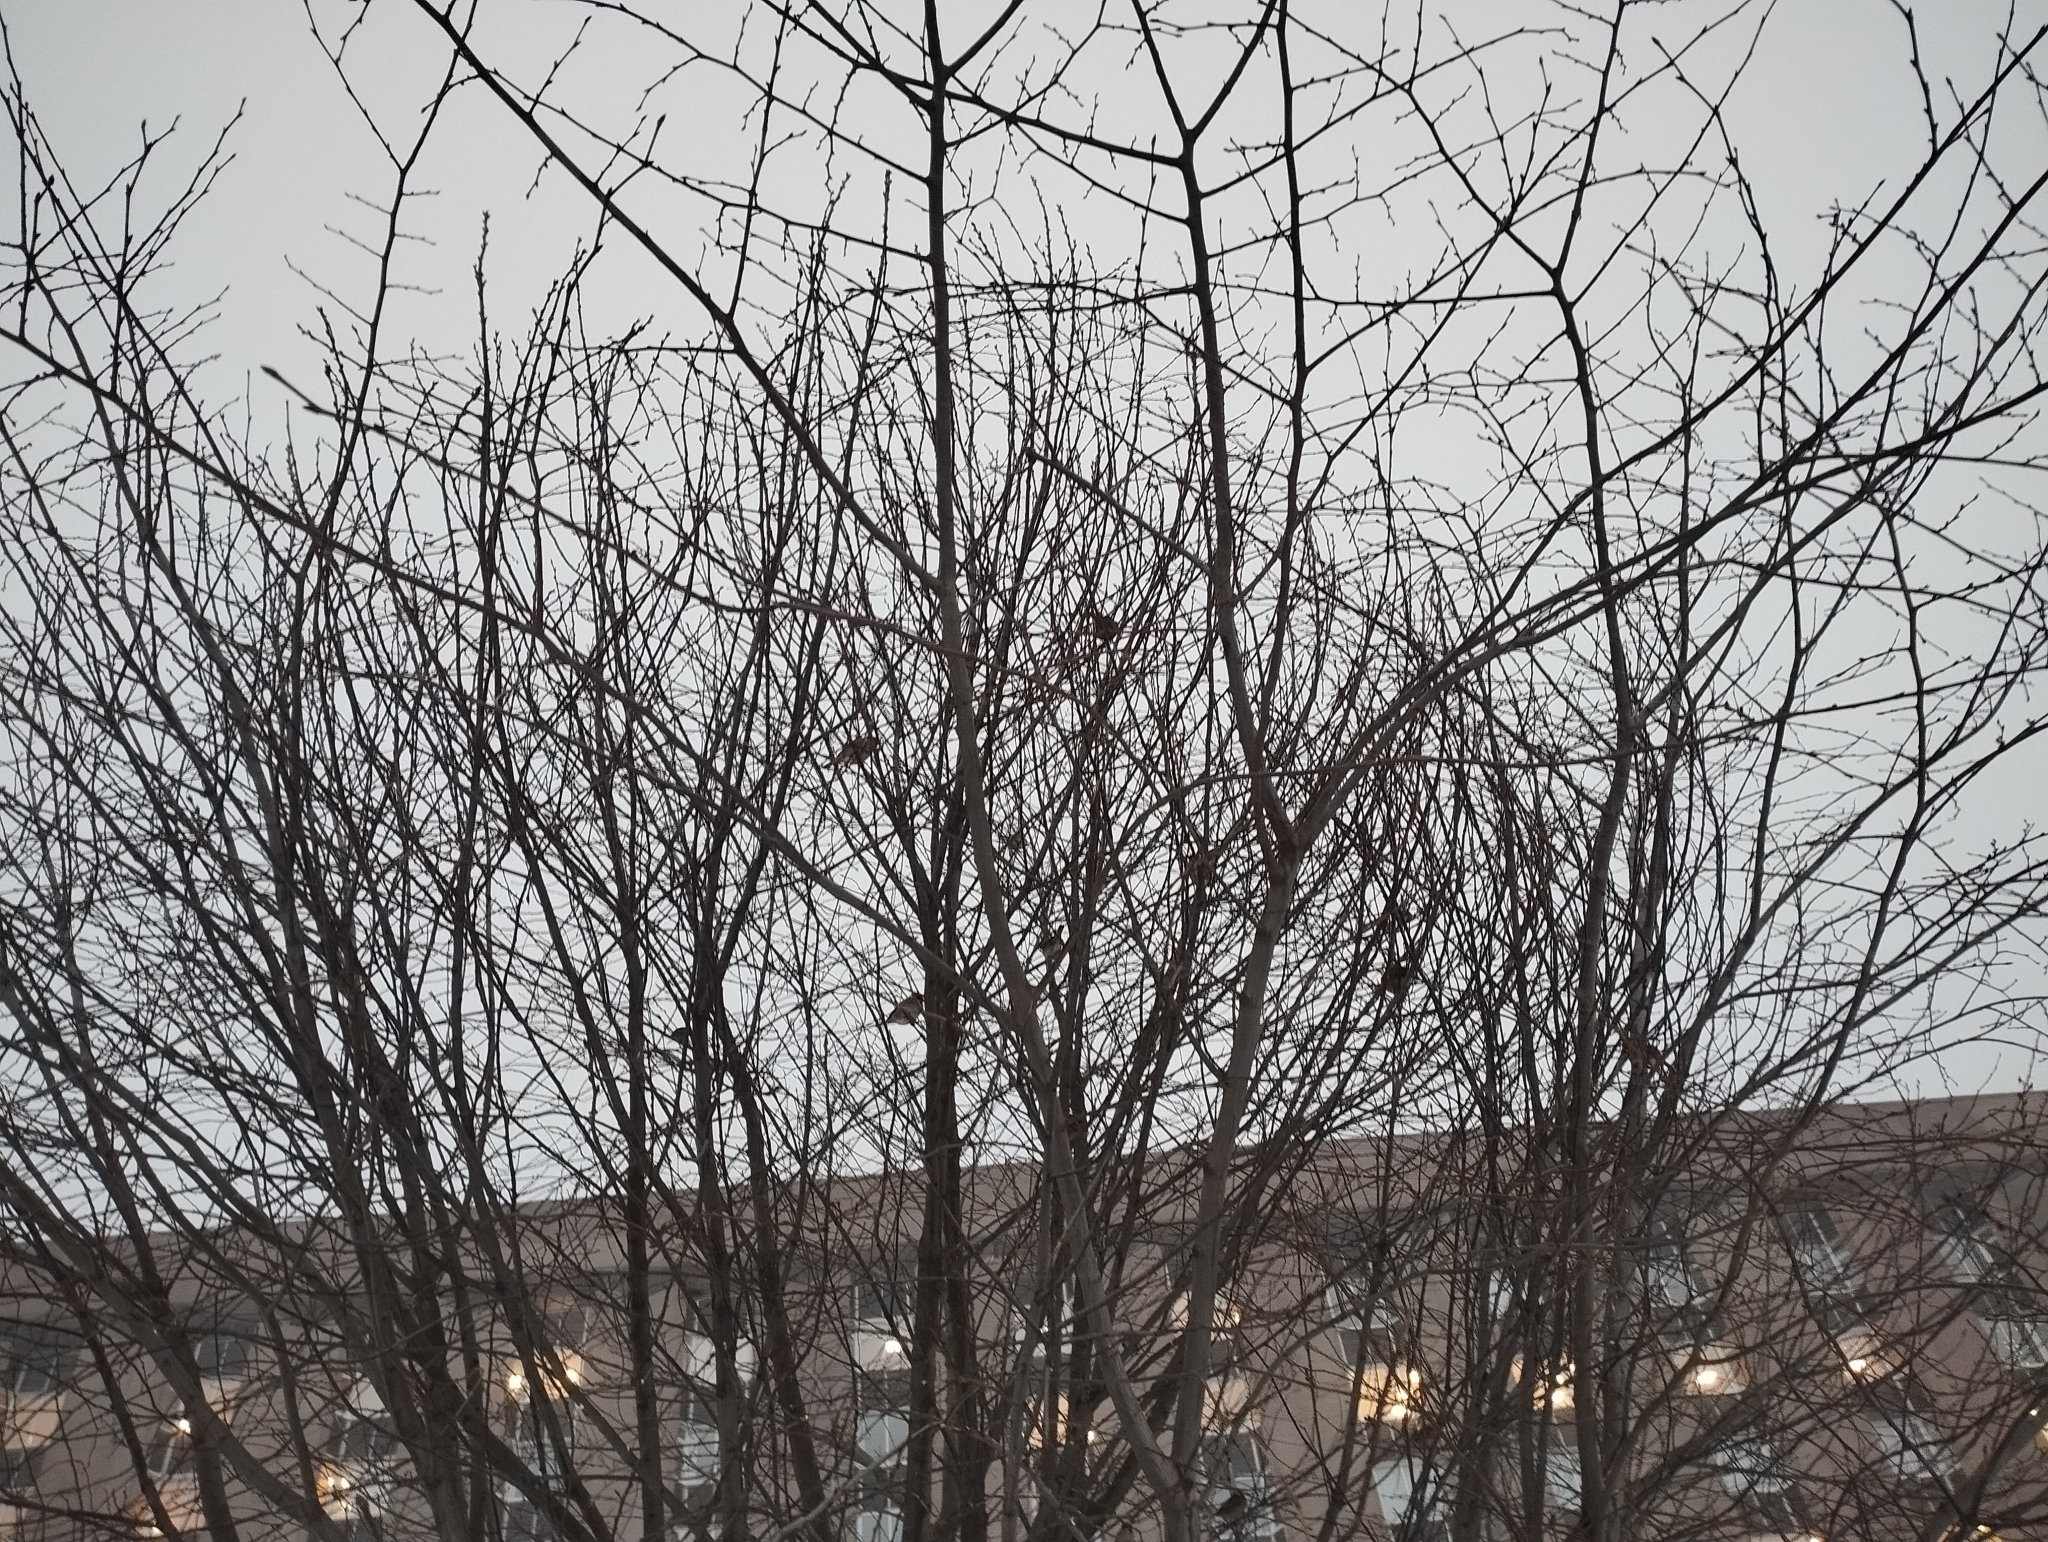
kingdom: Animalia
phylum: Chordata
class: Aves
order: Passeriformes
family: Passeridae
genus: Passer
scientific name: Passer montanus
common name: Eurasian tree sparrow
